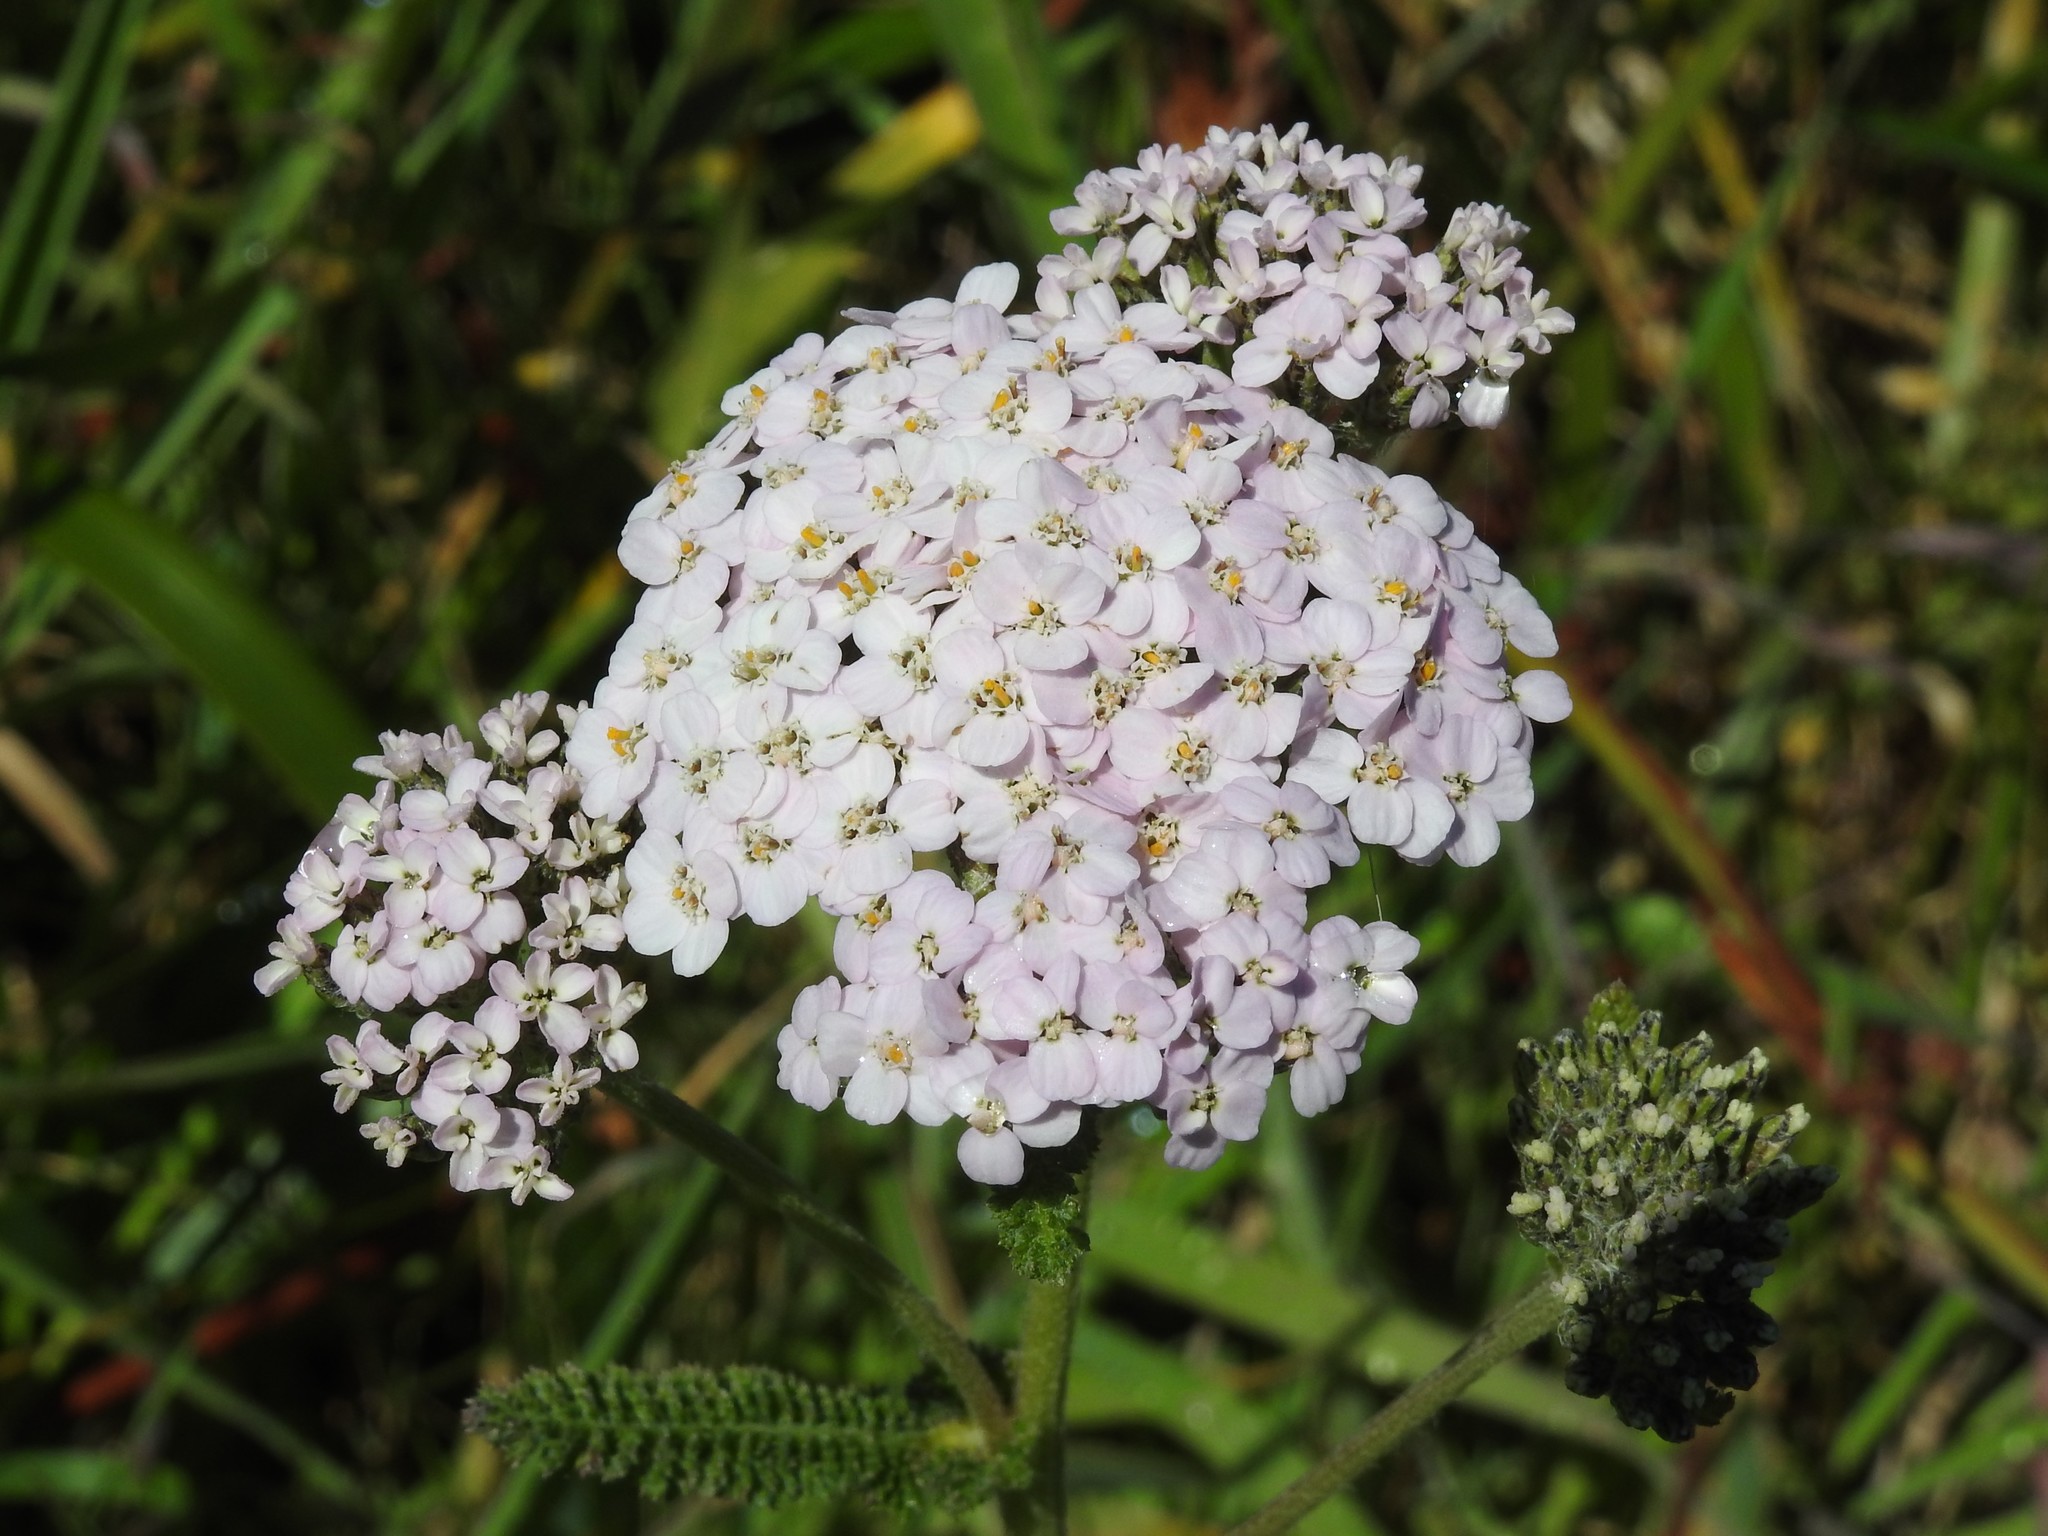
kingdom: Plantae
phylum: Tracheophyta
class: Magnoliopsida
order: Asterales
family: Asteraceae
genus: Achillea
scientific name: Achillea millefolium
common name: Yarrow
